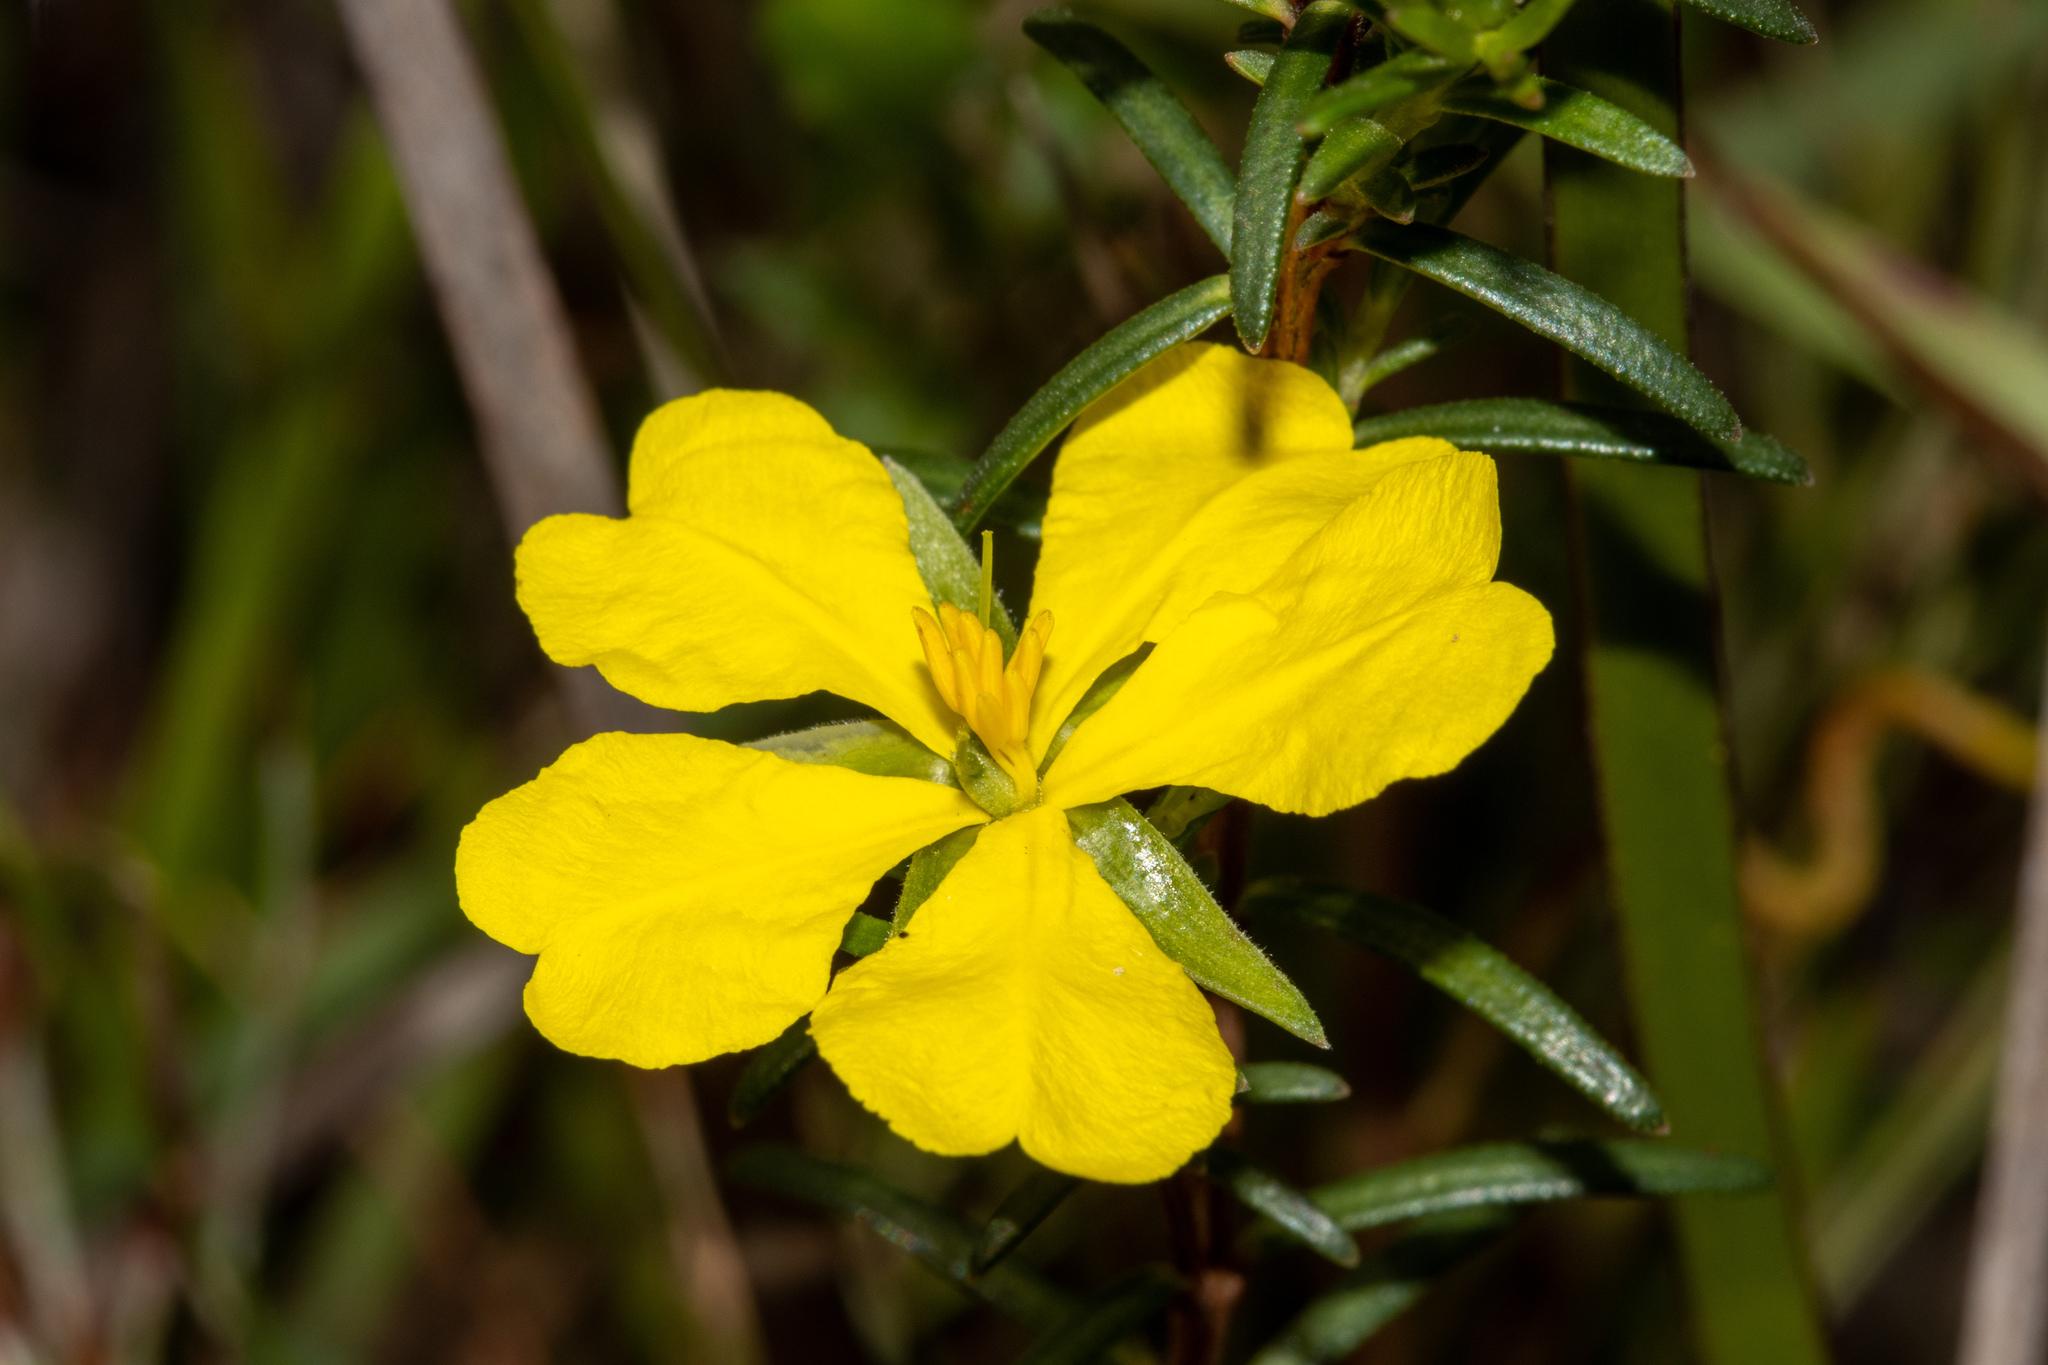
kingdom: Plantae
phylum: Tracheophyta
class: Magnoliopsida
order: Dilleniales
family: Dilleniaceae
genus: Hibbertia
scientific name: Hibbertia devitata
